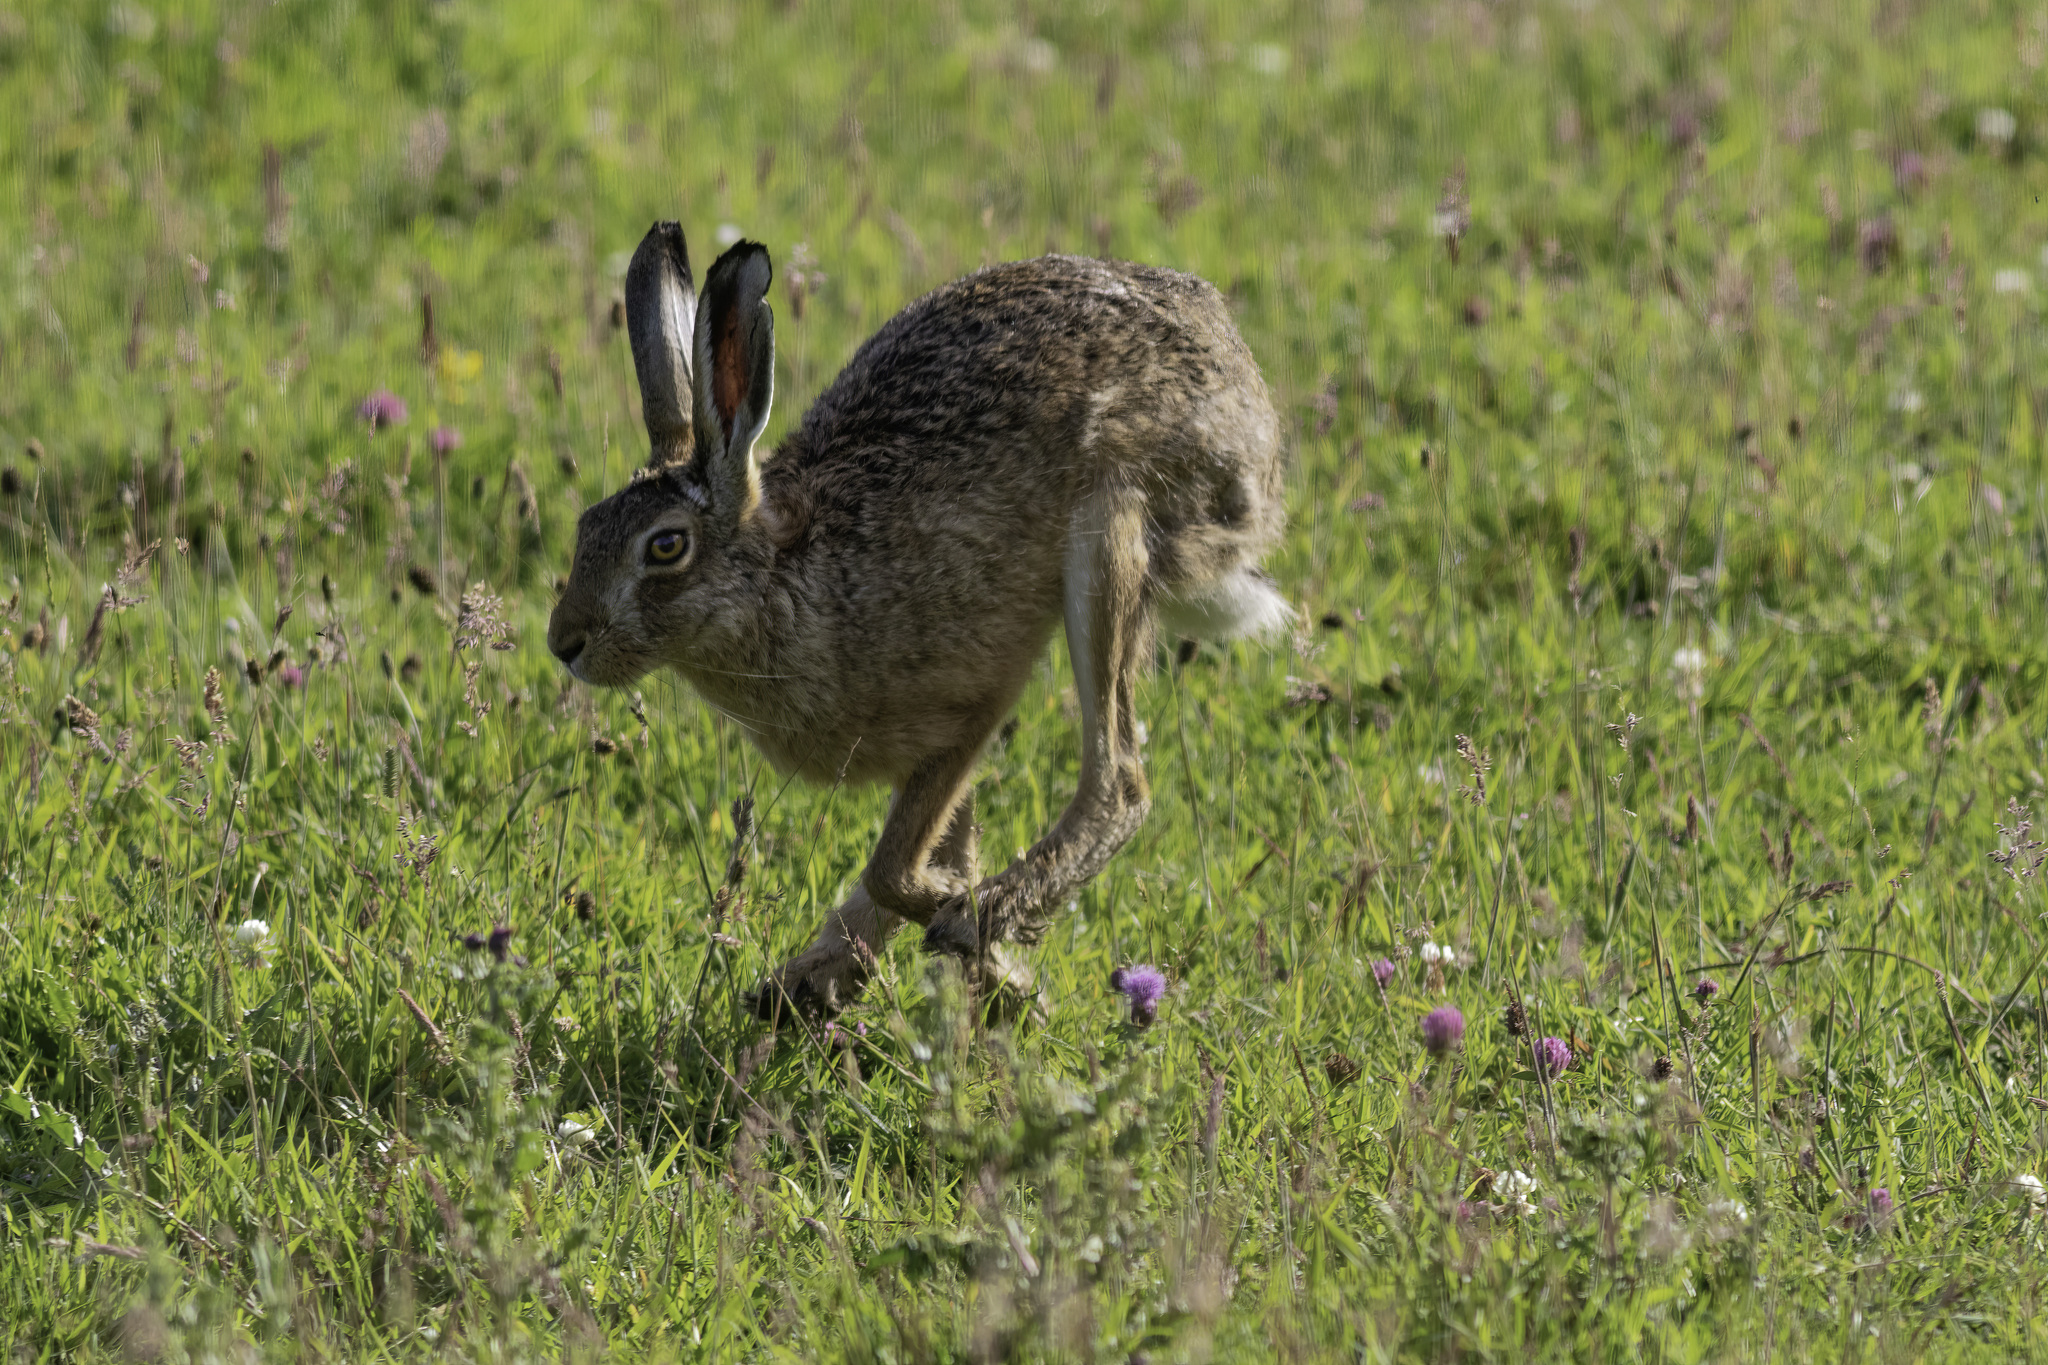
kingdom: Animalia
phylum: Chordata
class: Mammalia
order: Lagomorpha
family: Leporidae
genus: Lepus
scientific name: Lepus europaeus
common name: European hare
